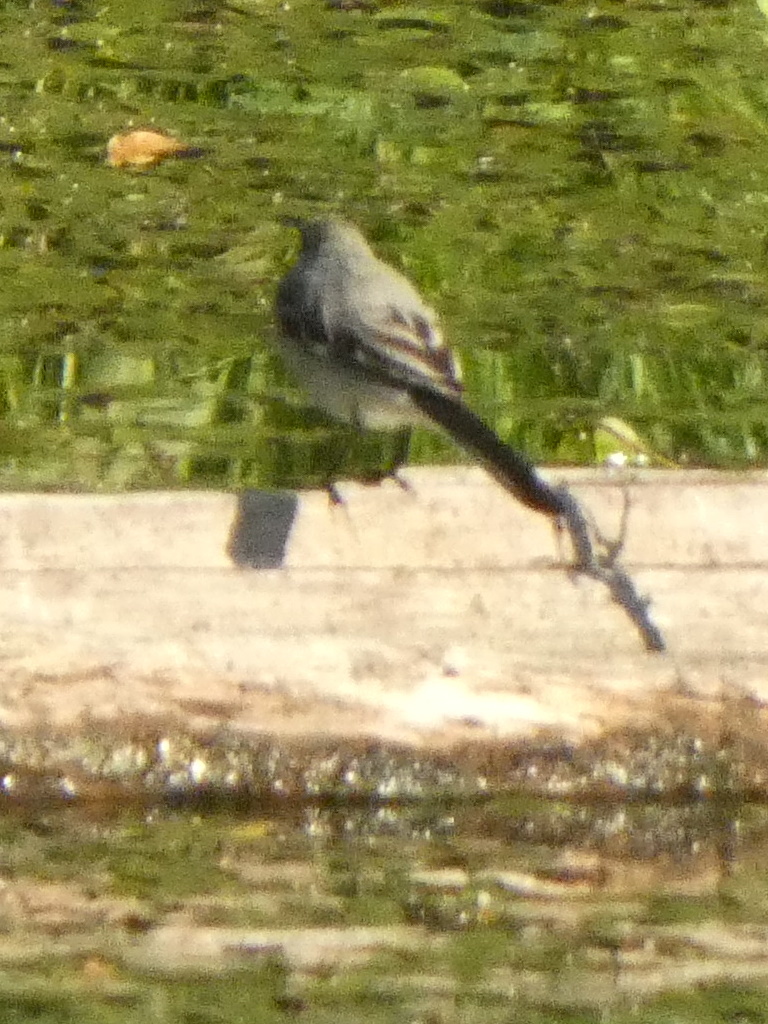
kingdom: Animalia
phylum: Chordata
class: Aves
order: Passeriformes
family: Motacillidae
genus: Motacilla
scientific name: Motacilla alba
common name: White wagtail
